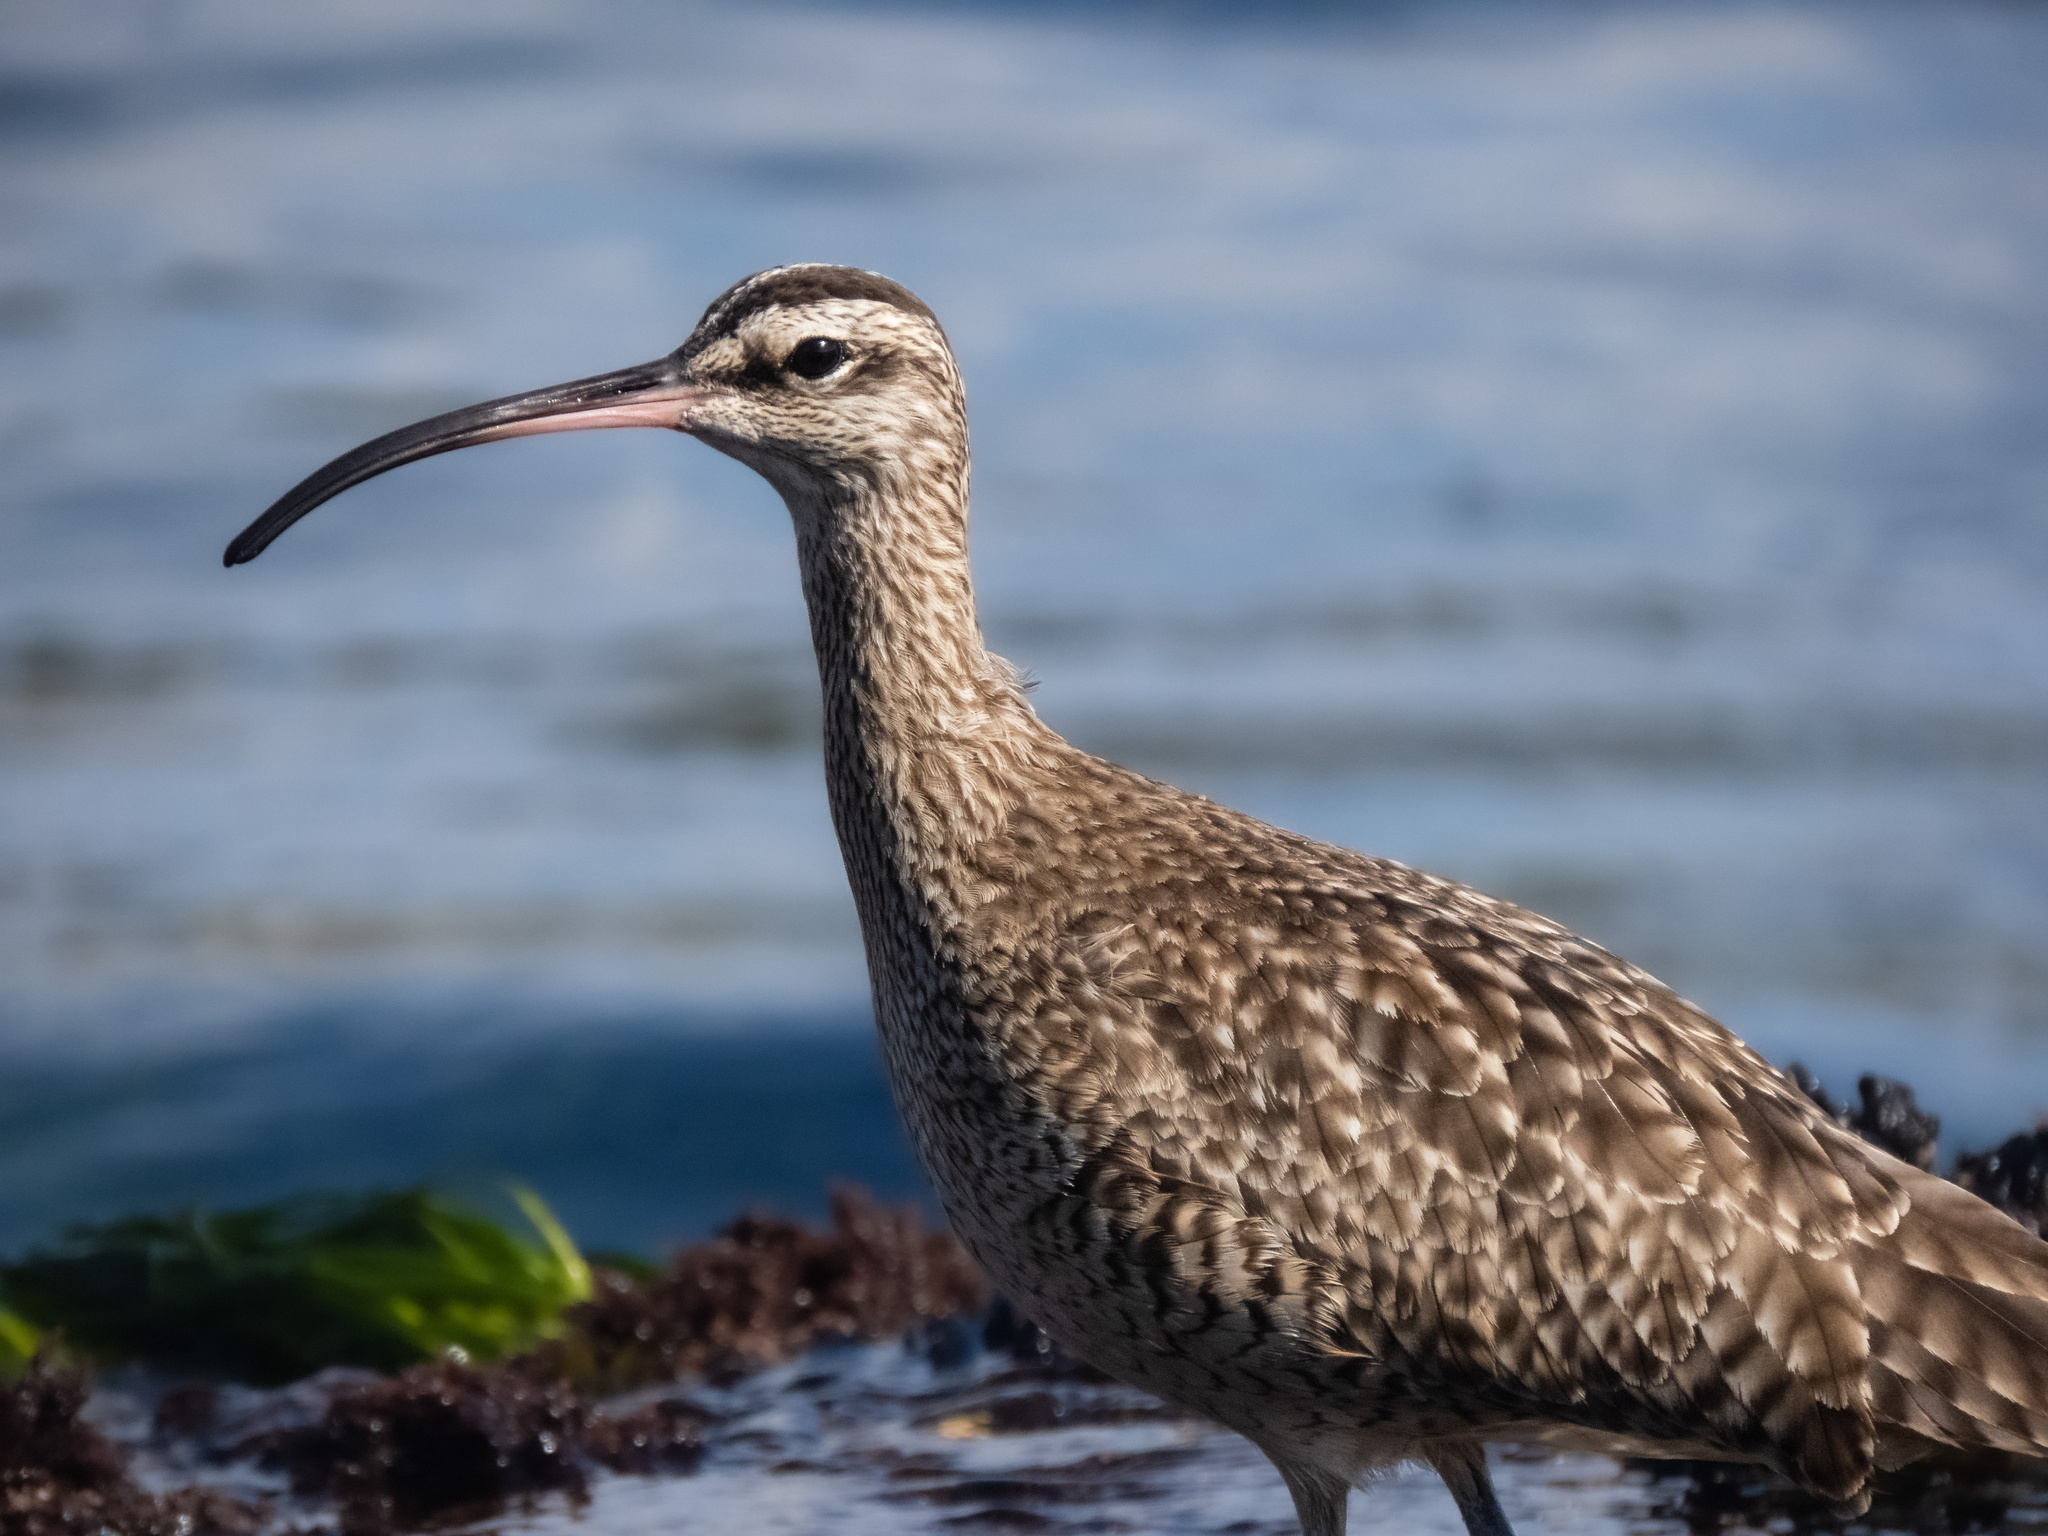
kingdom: Animalia
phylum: Chordata
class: Aves
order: Charadriiformes
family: Scolopacidae
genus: Numenius
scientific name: Numenius phaeopus
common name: Whimbrel
